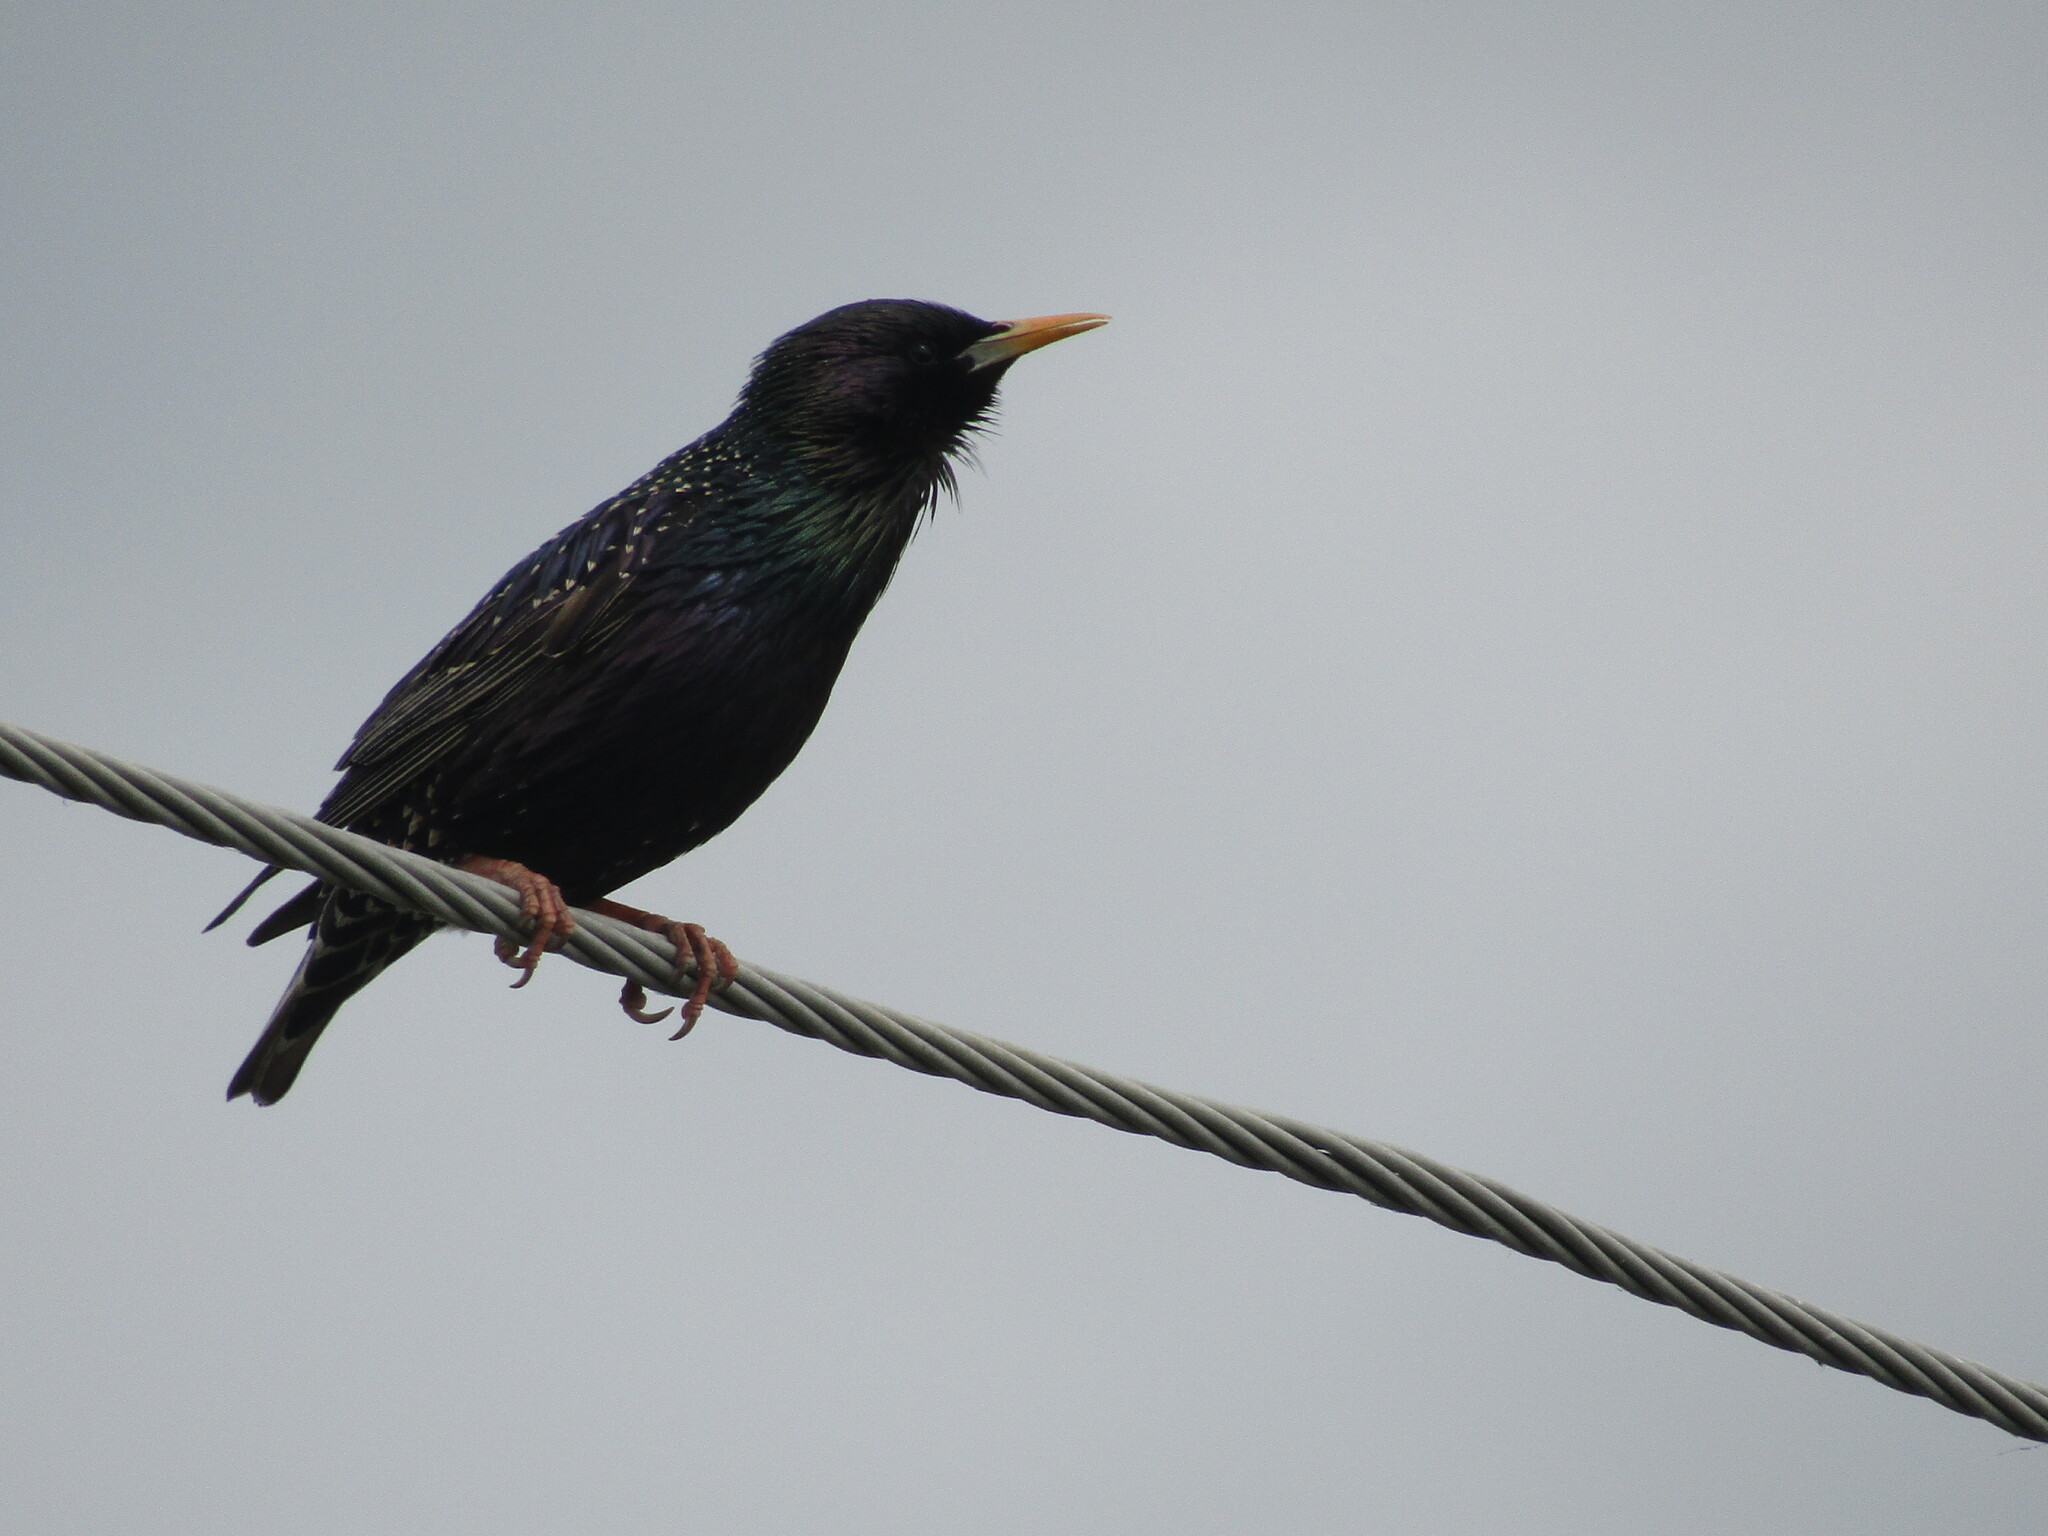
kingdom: Animalia
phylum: Chordata
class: Aves
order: Passeriformes
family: Sturnidae
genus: Sturnus
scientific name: Sturnus vulgaris
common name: Common starling
